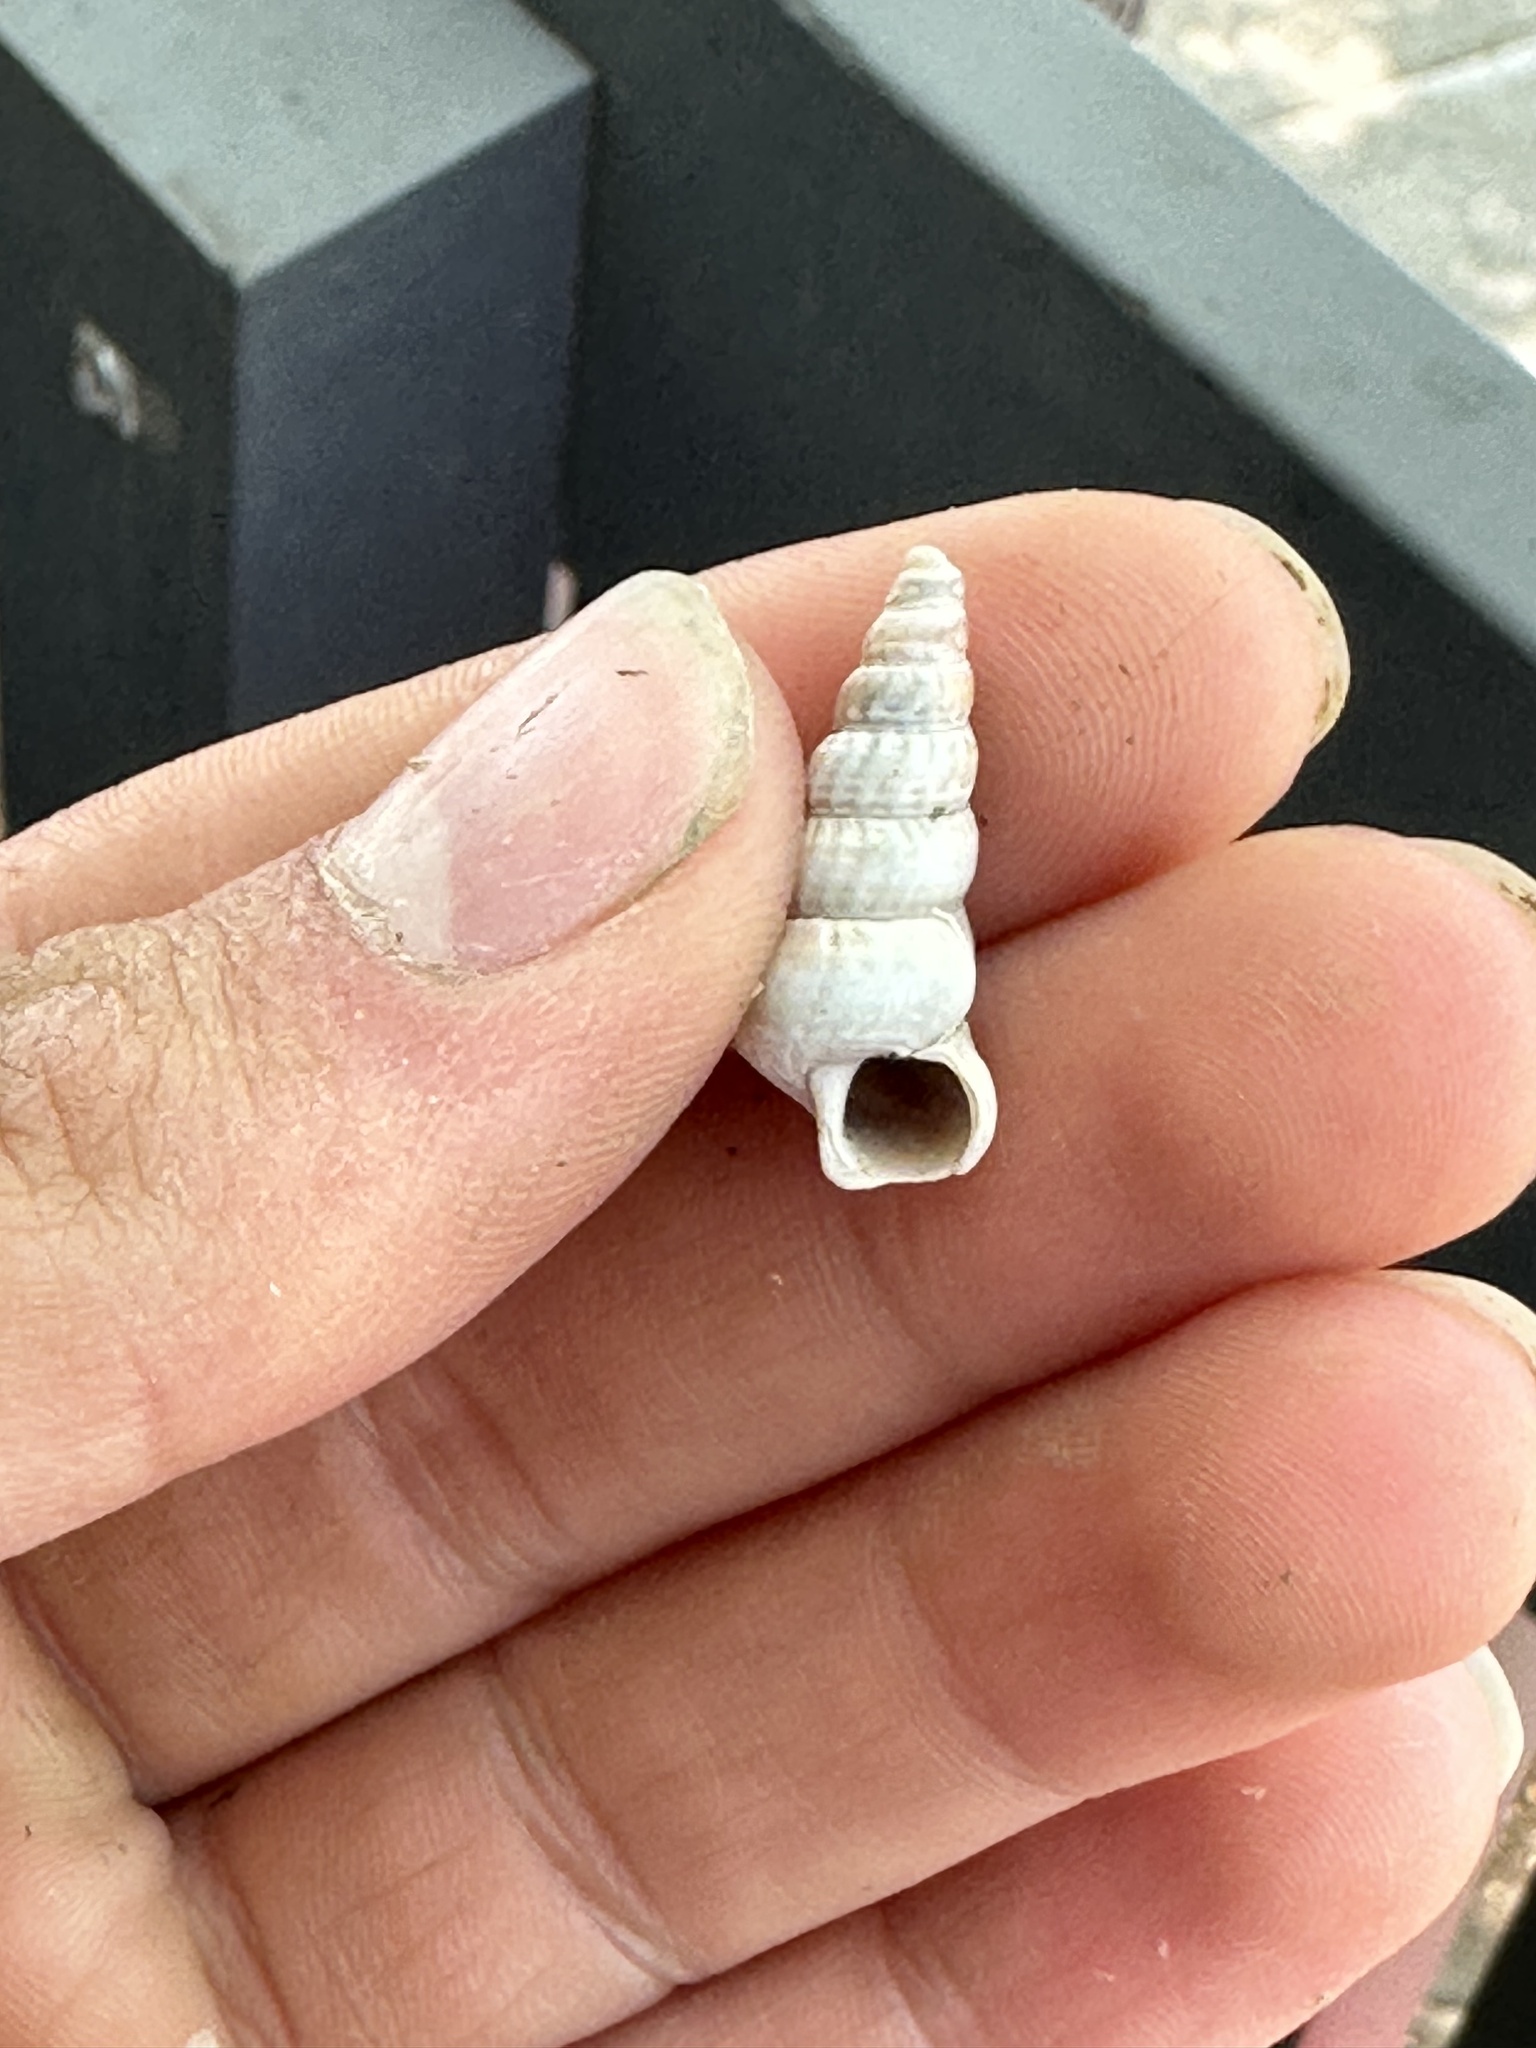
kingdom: Animalia
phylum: Mollusca
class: Gastropoda
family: Potamididae
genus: Cerithideopsis
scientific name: Cerithideopsis californica
